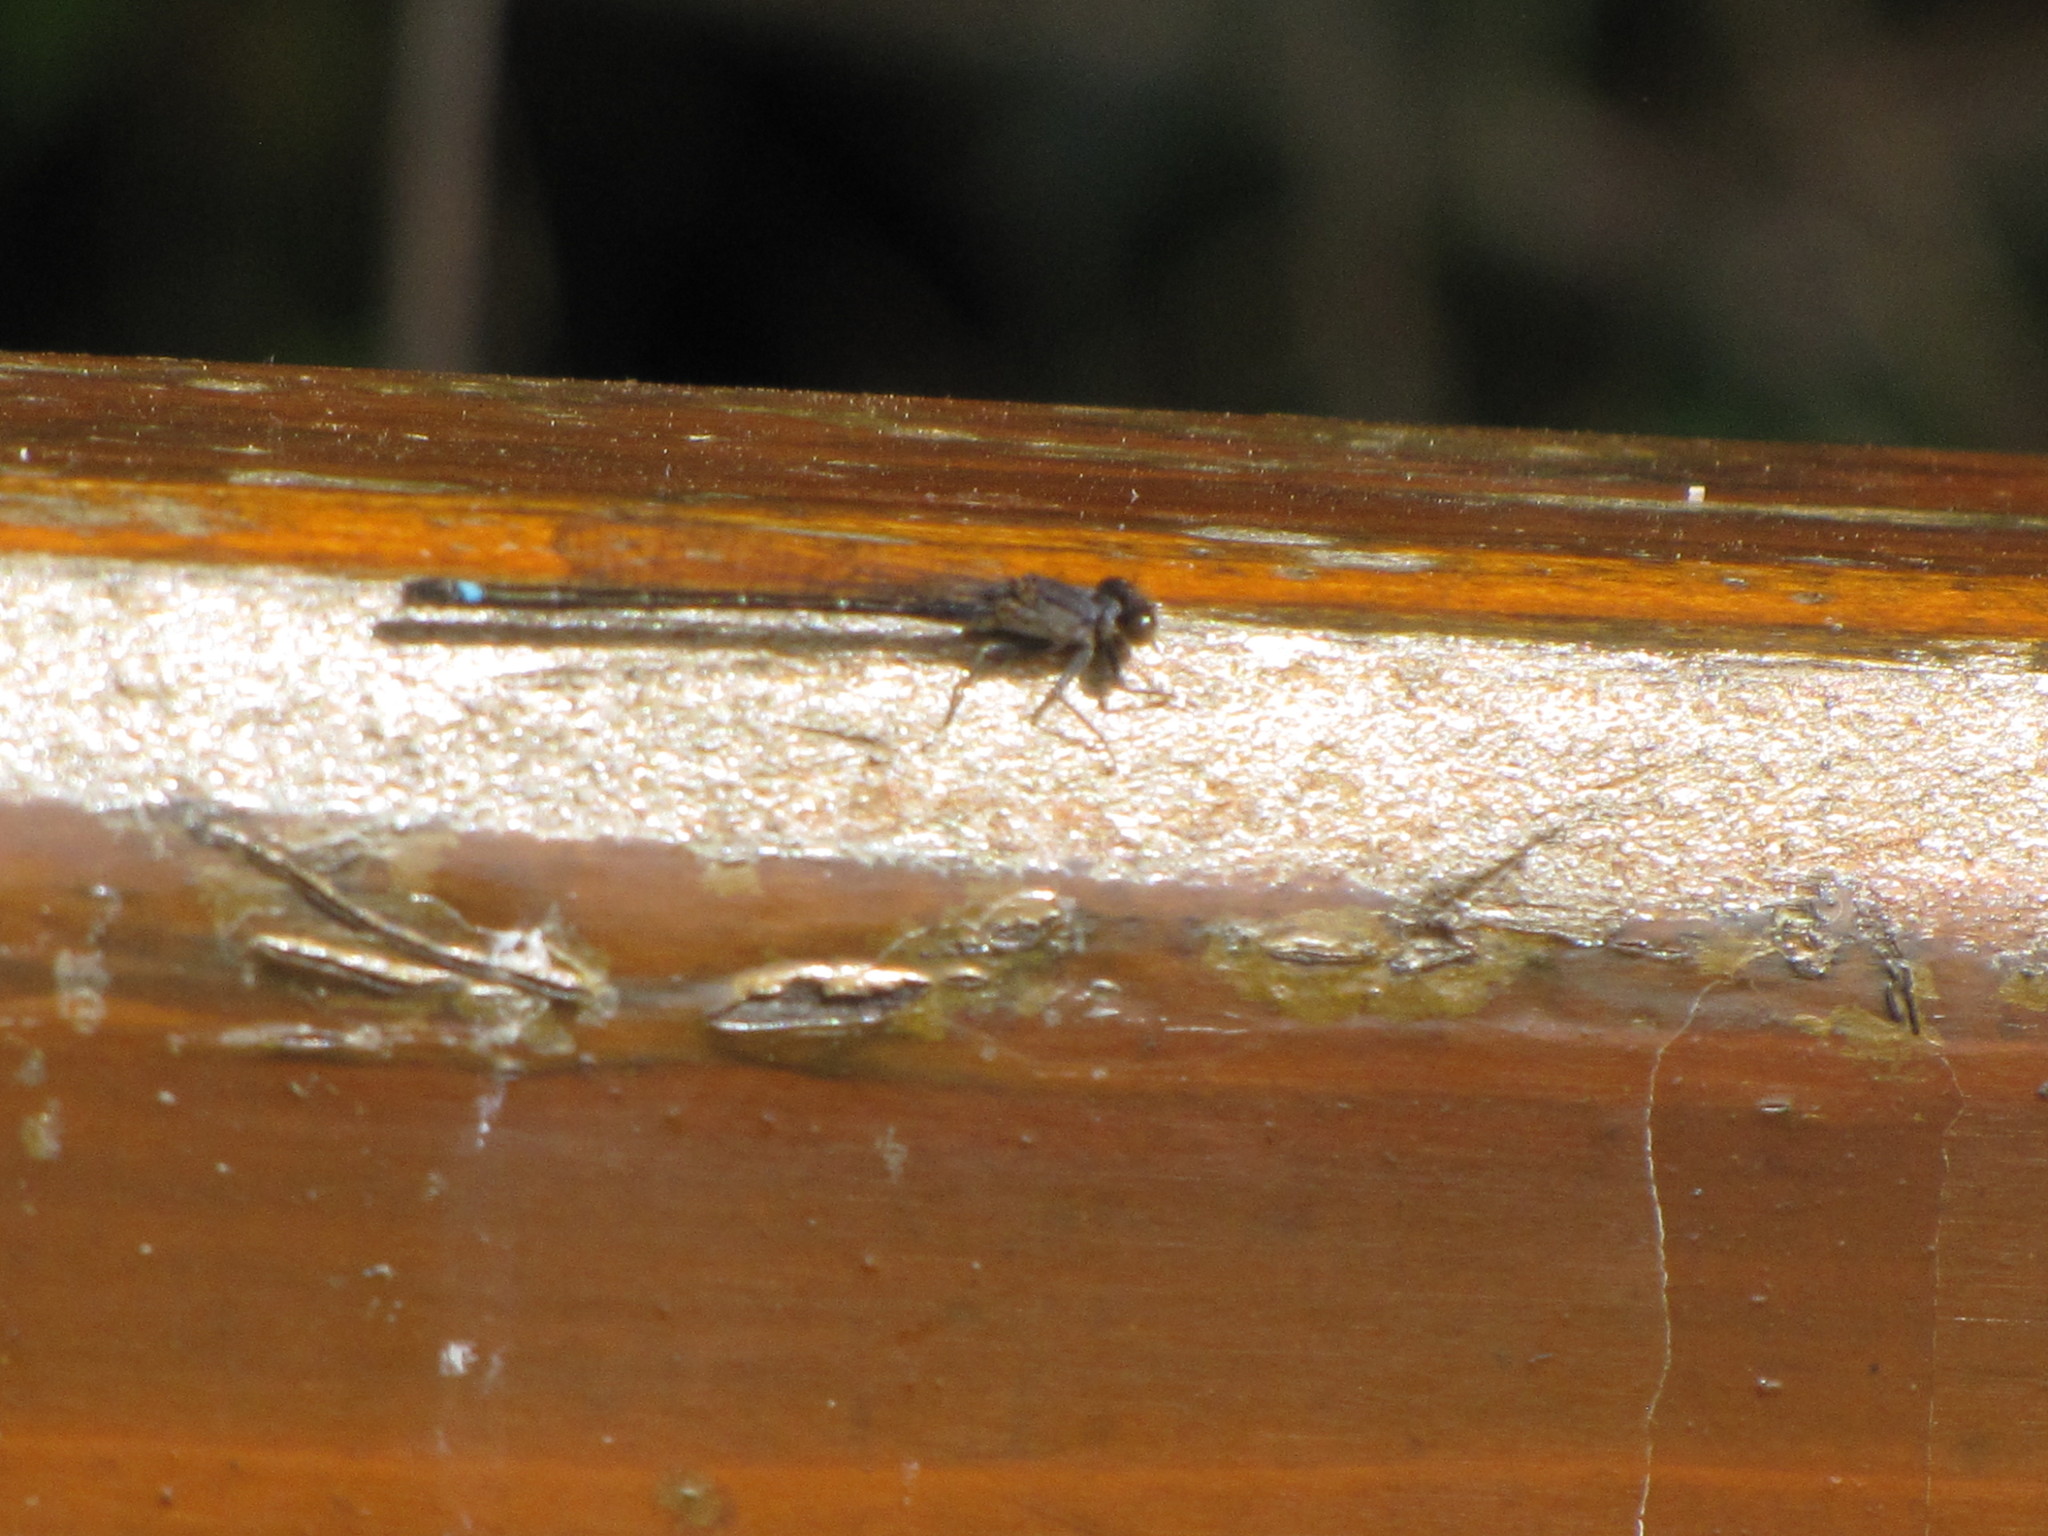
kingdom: Animalia
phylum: Arthropoda
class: Insecta
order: Odonata
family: Coenagrionidae
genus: Ischnura
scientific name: Ischnura cervula
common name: Pacific forktail
